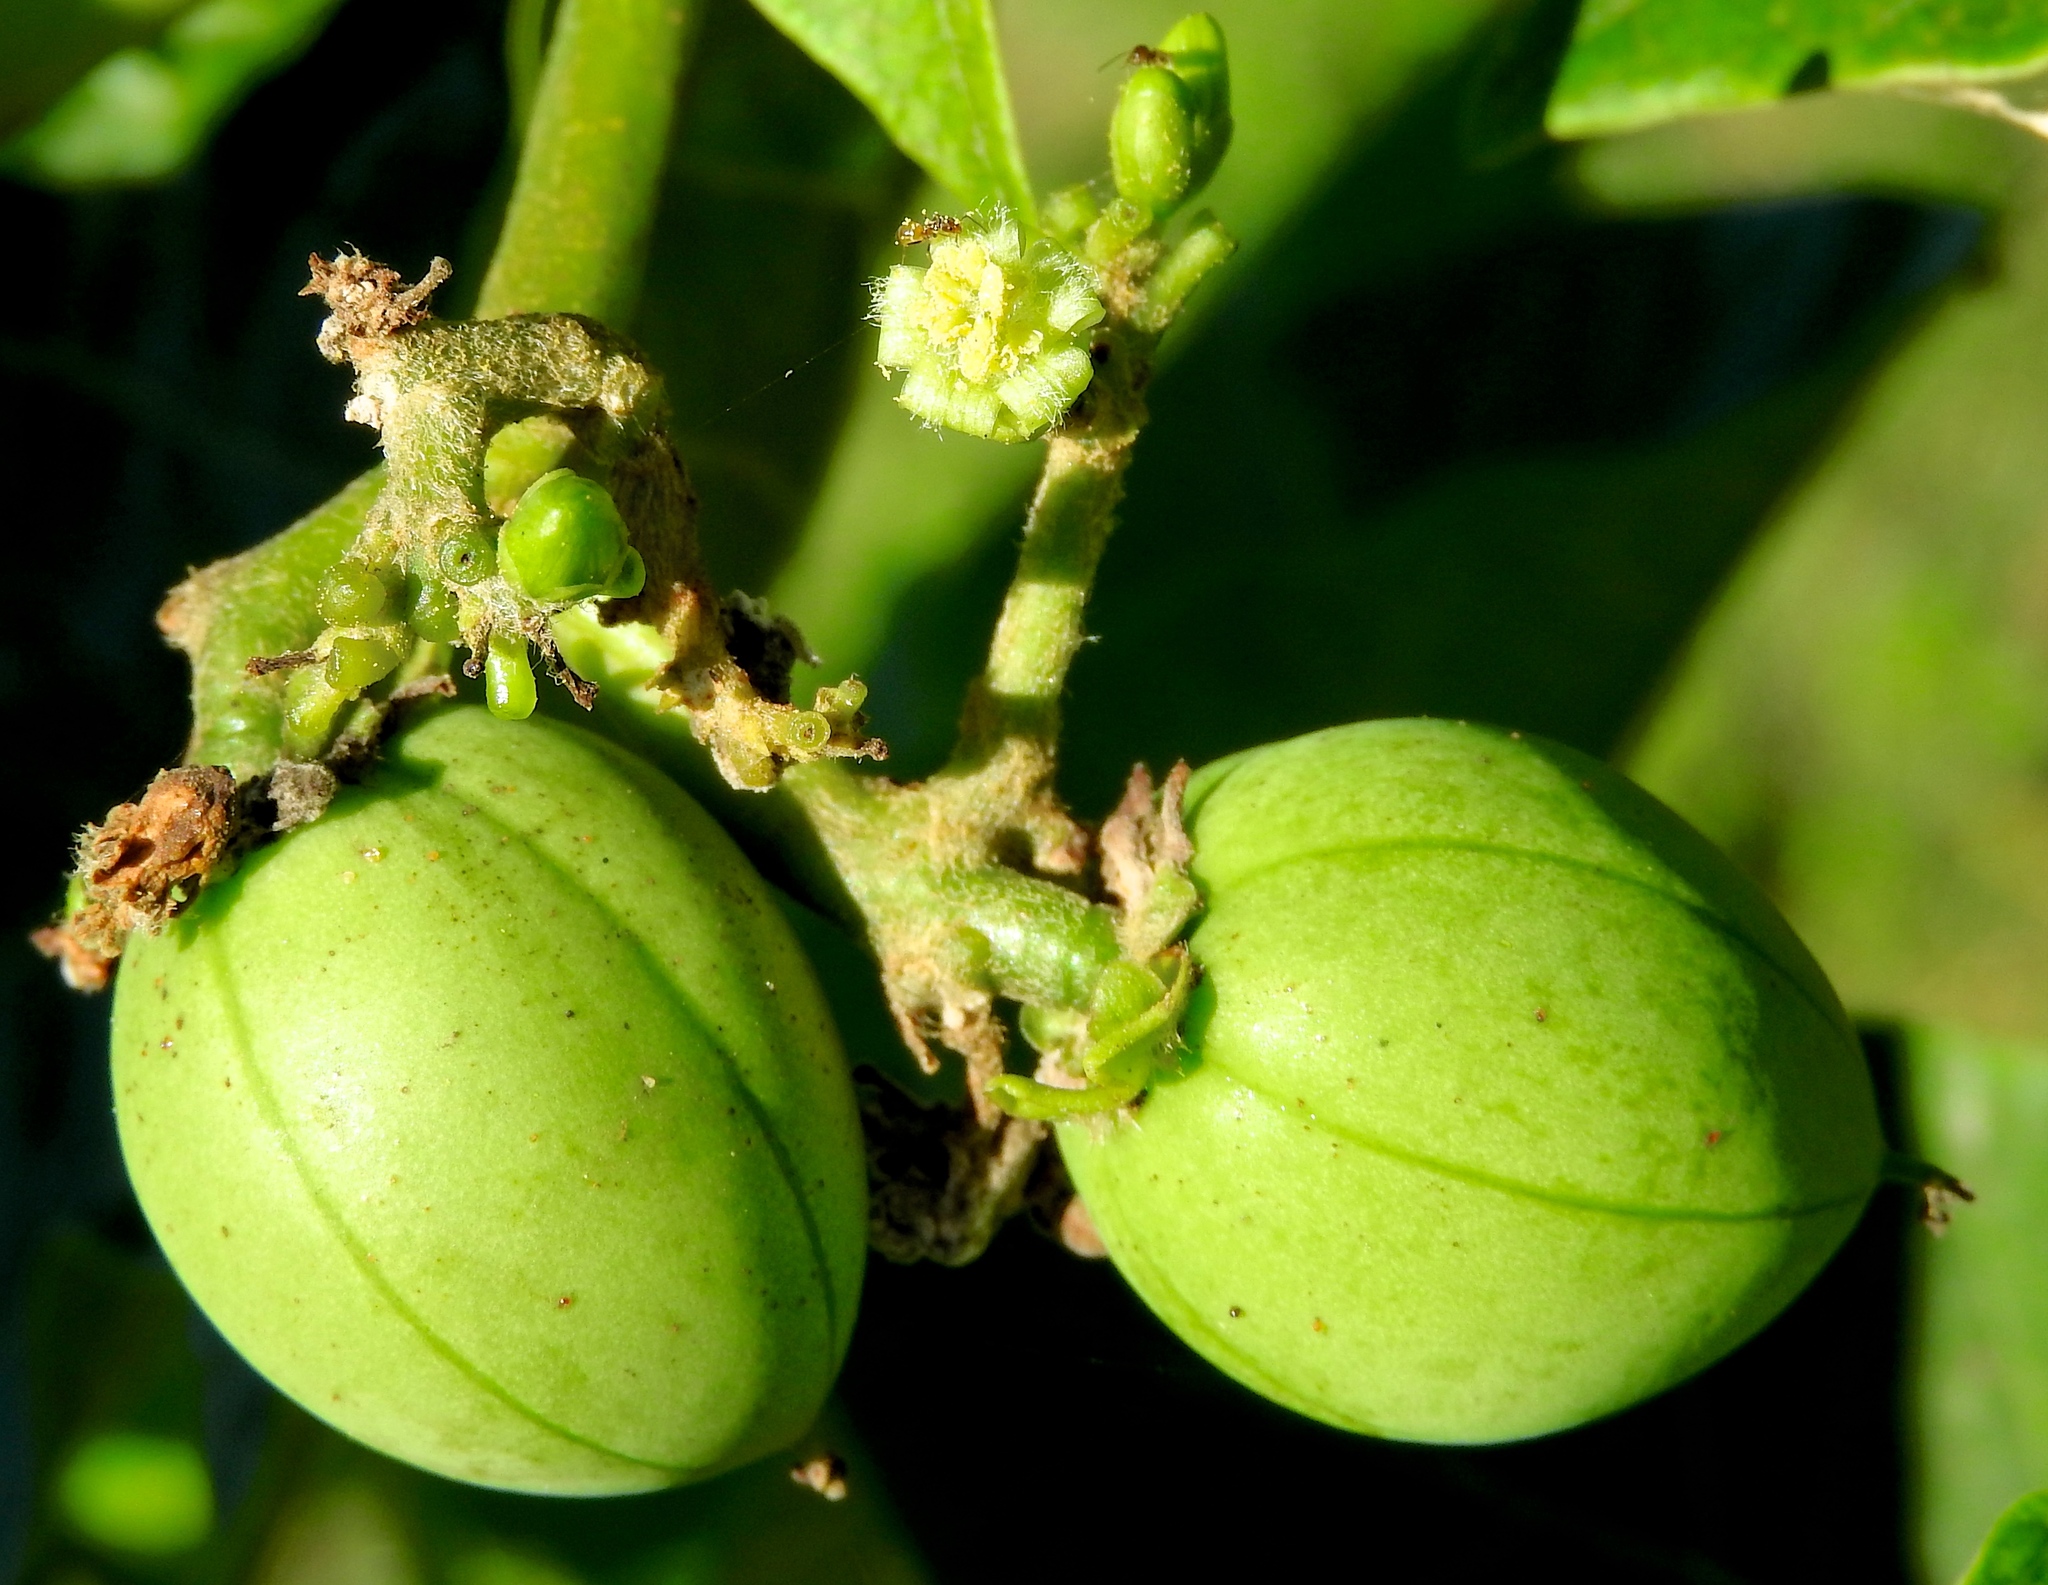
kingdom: Plantae
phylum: Tracheophyta
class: Magnoliopsida
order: Malpighiales
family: Euphorbiaceae
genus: Jatropha
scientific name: Jatropha curcas
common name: Barbados nut
